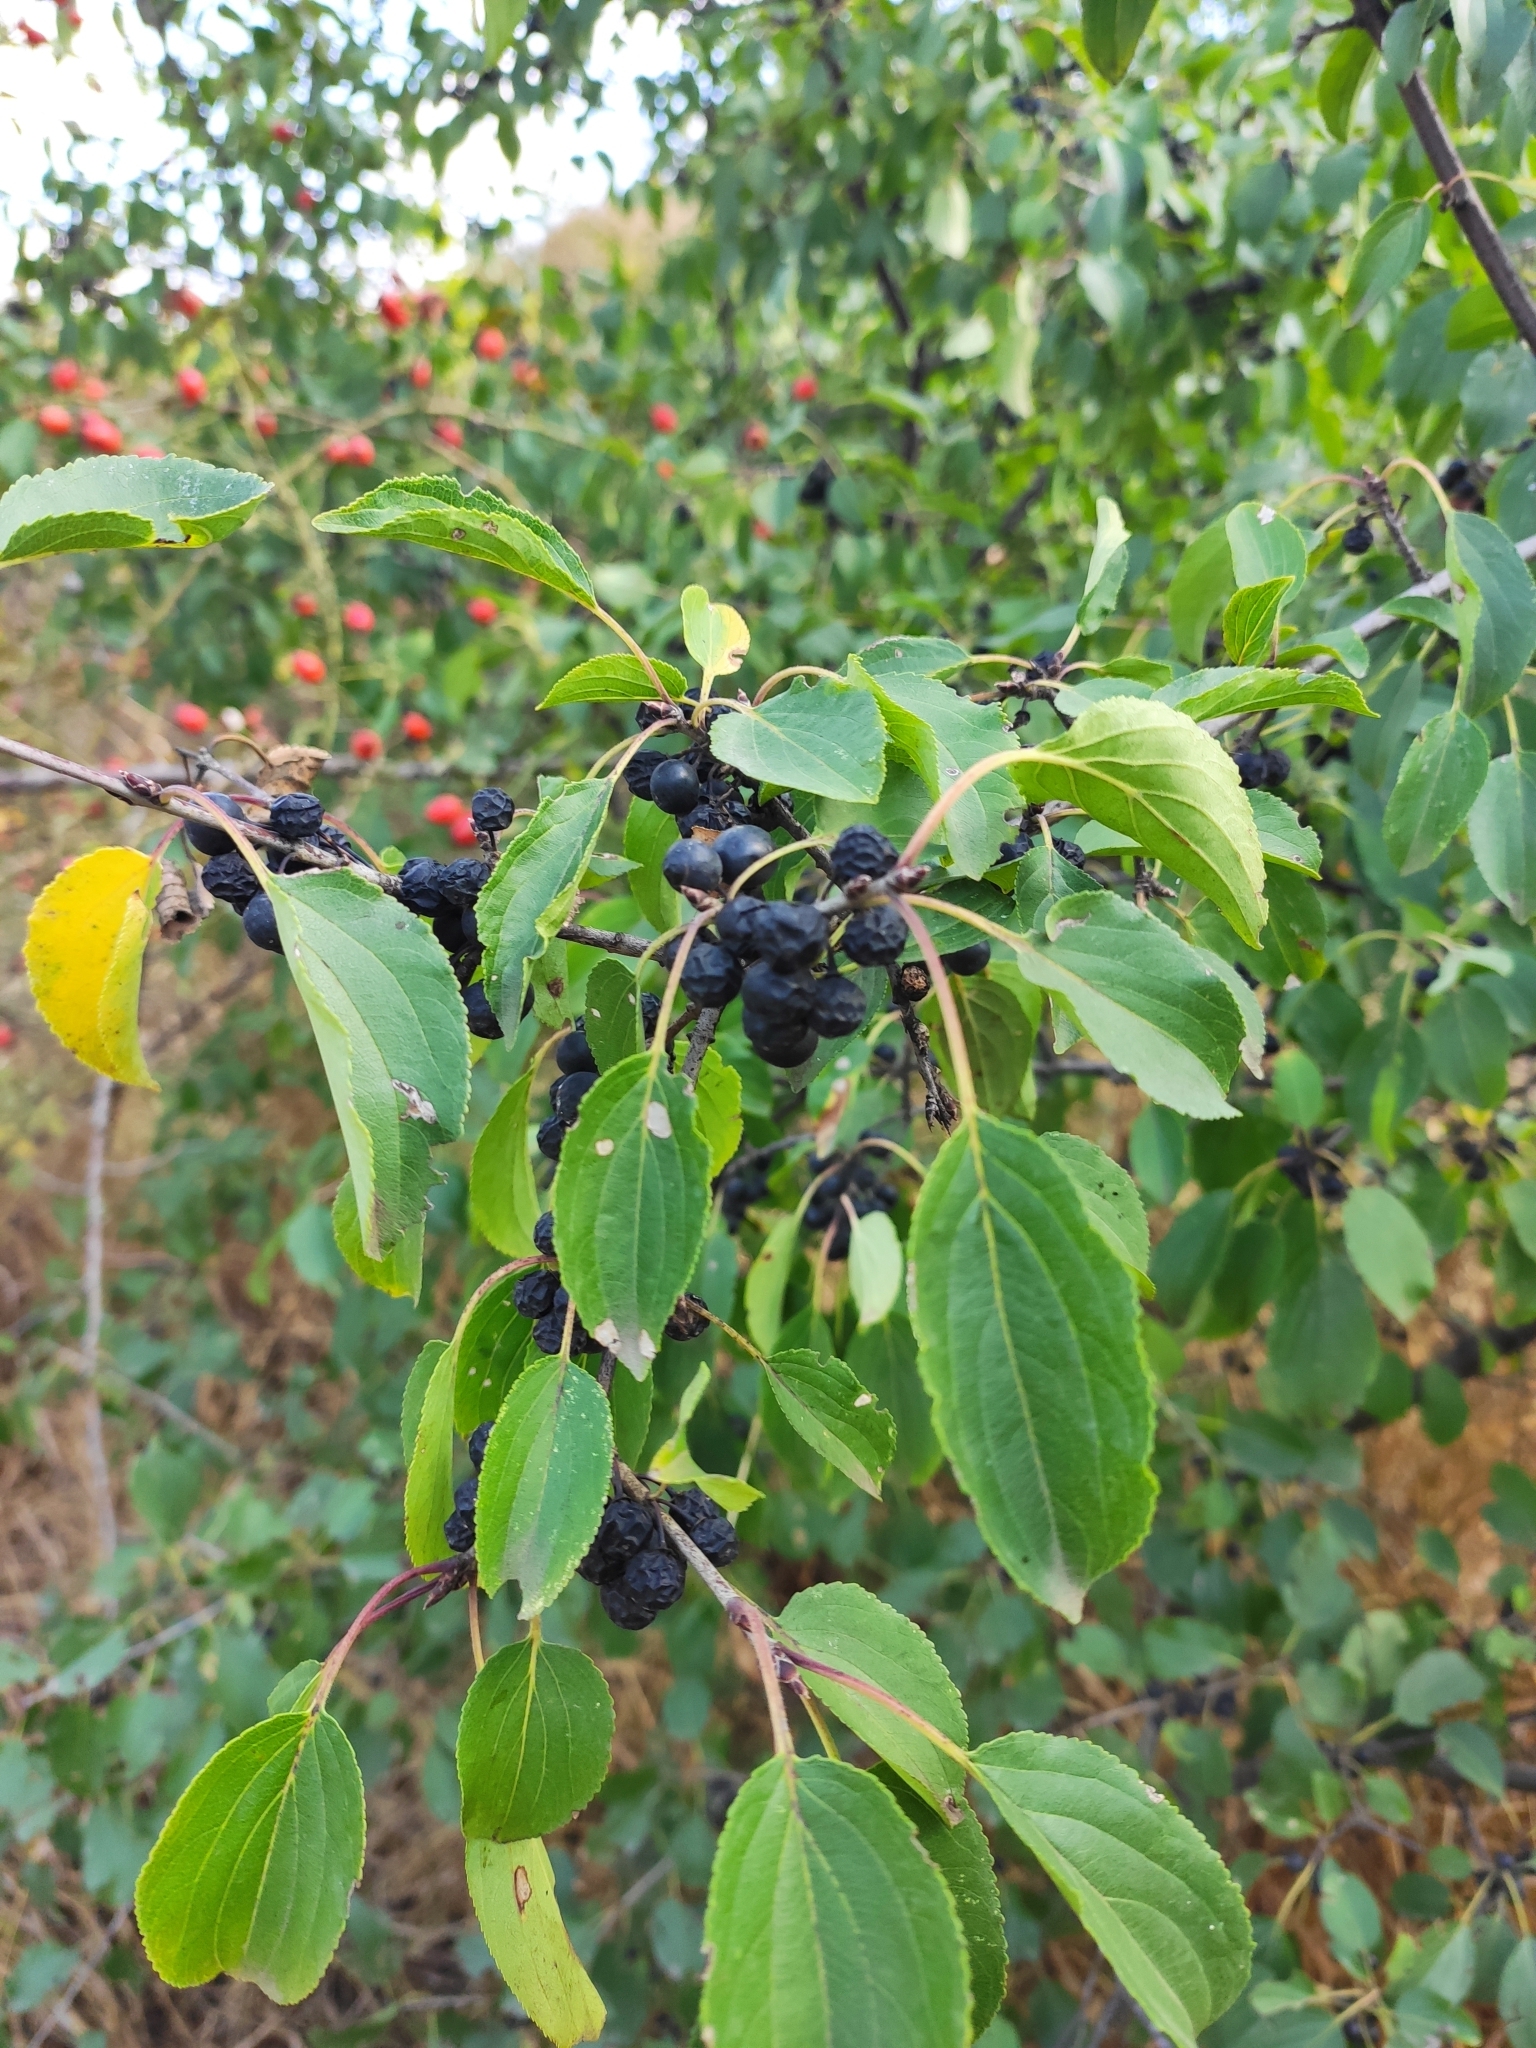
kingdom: Plantae
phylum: Tracheophyta
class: Magnoliopsida
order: Rosales
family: Rhamnaceae
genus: Rhamnus
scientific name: Rhamnus cathartica
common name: Common buckthorn
